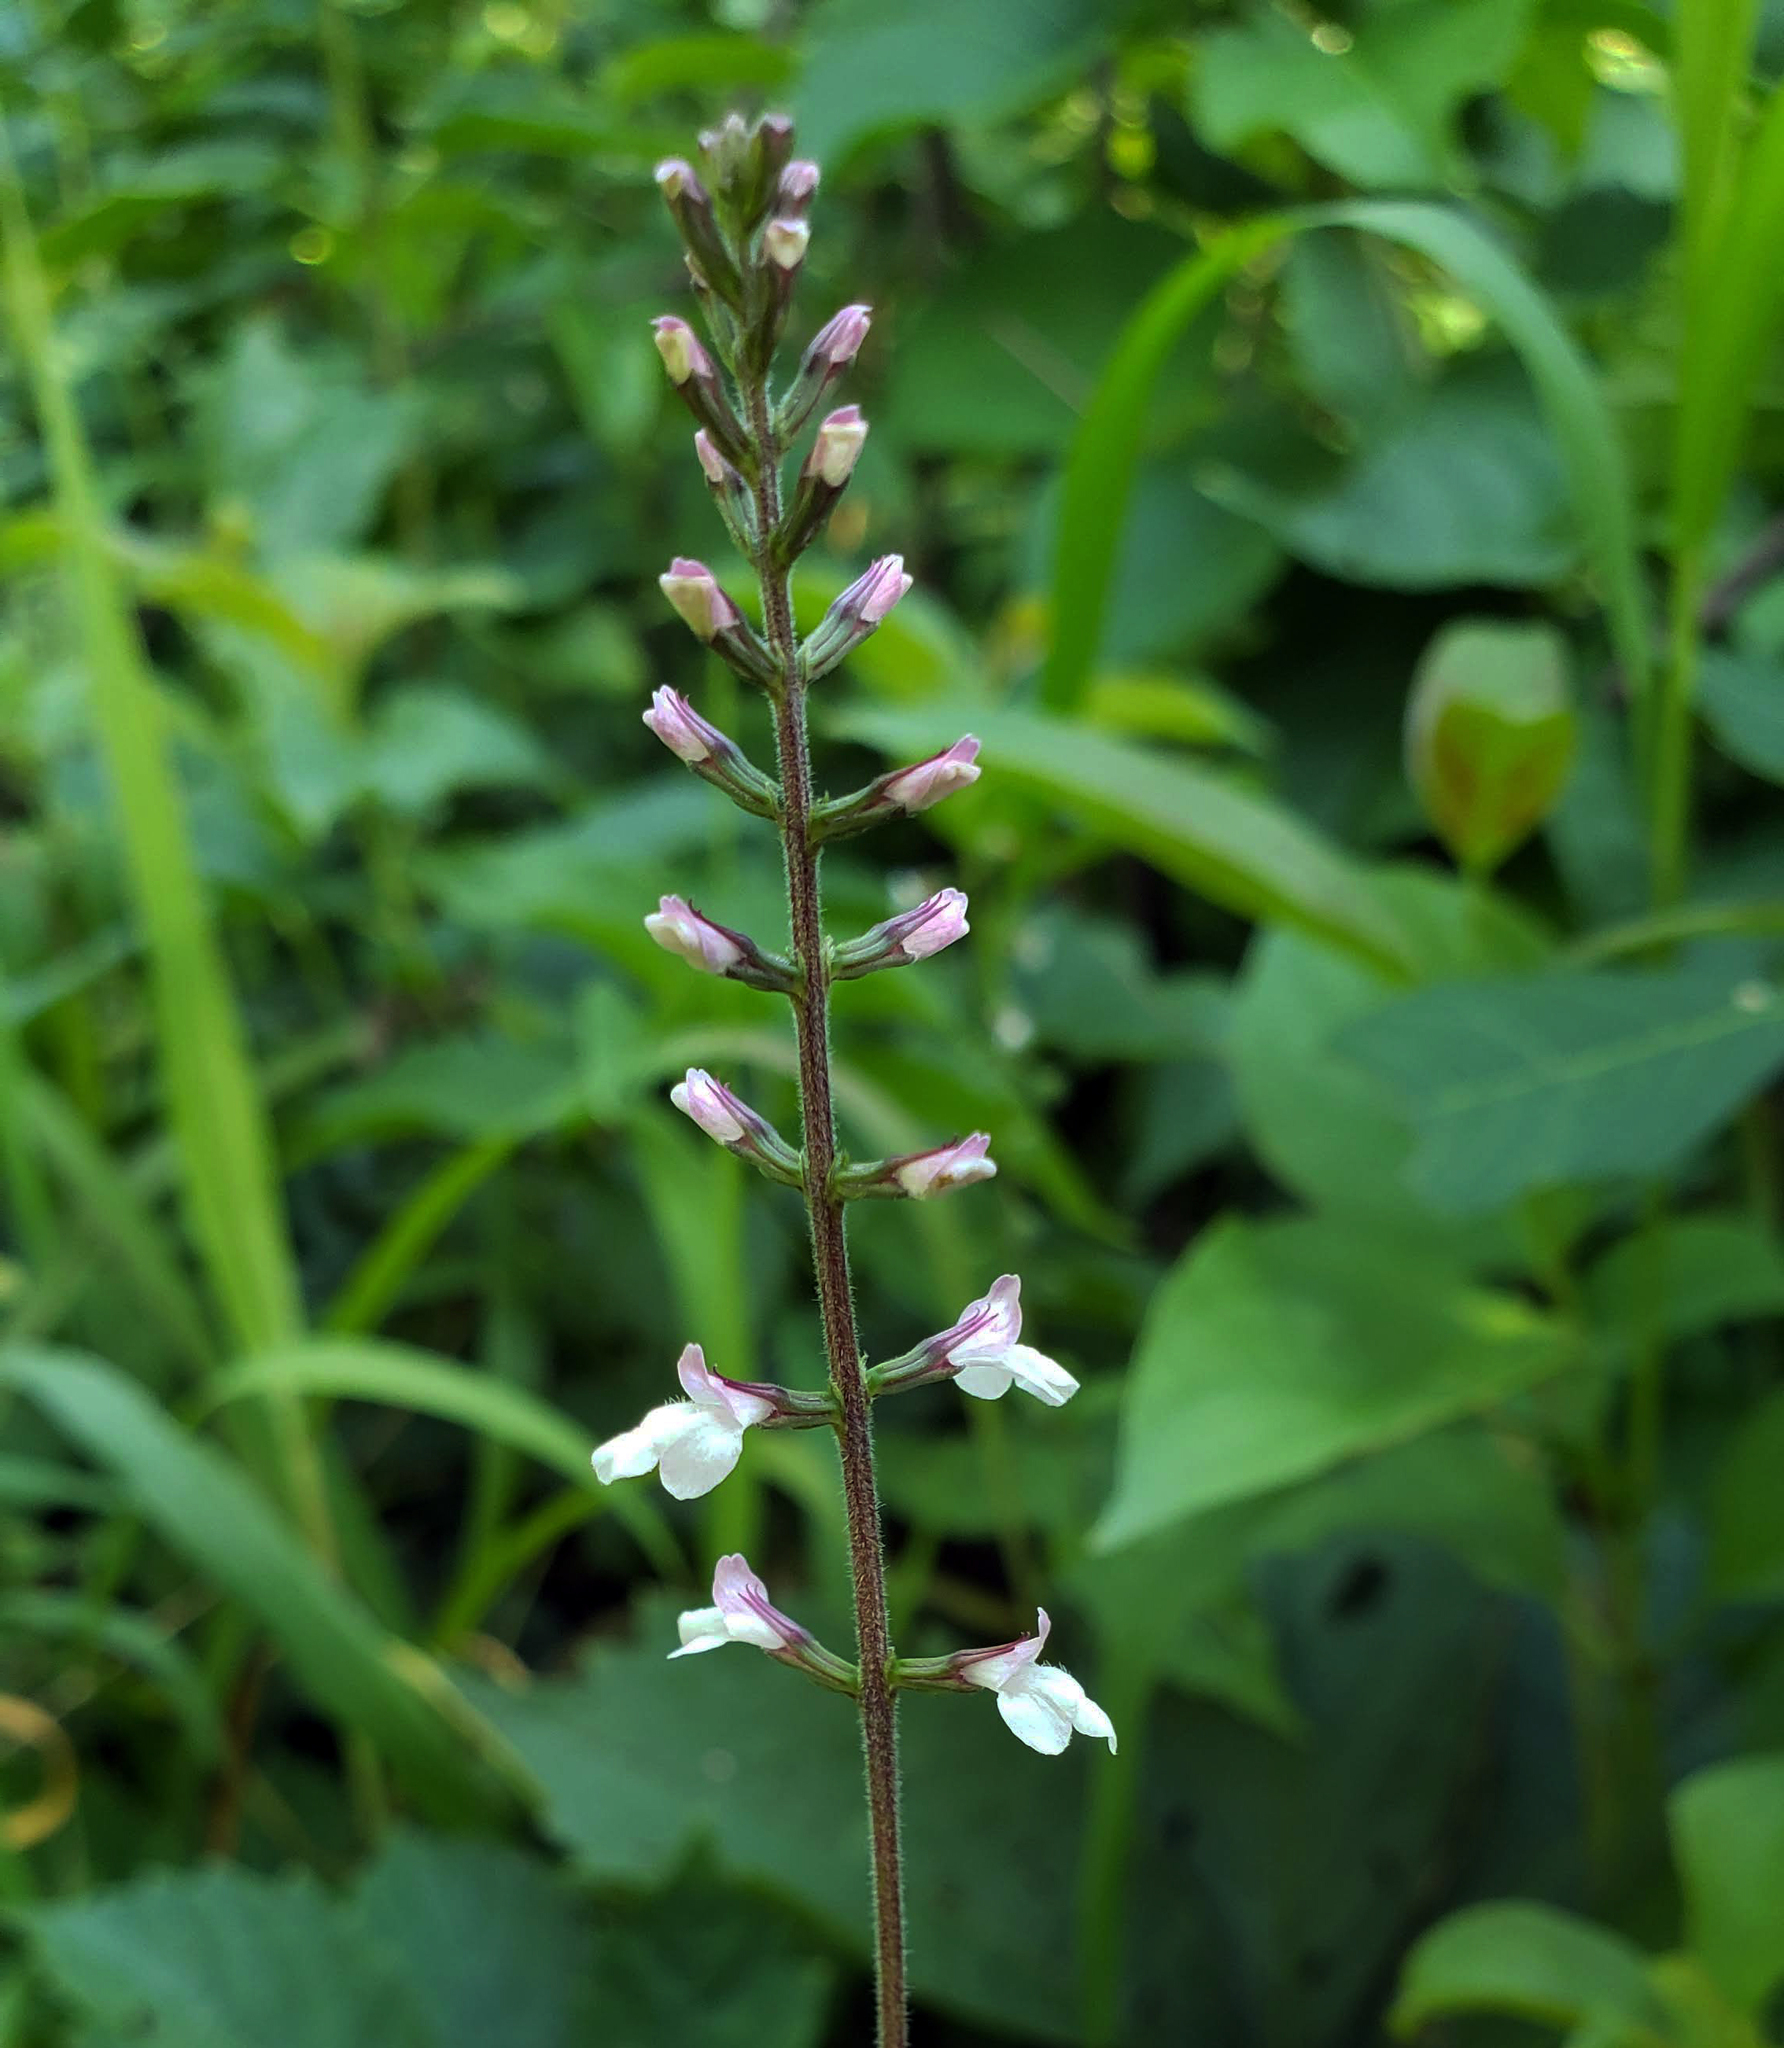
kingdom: Plantae
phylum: Tracheophyta
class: Magnoliopsida
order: Lamiales
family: Phrymaceae
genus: Phryma
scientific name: Phryma leptostachya
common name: American lopseed
